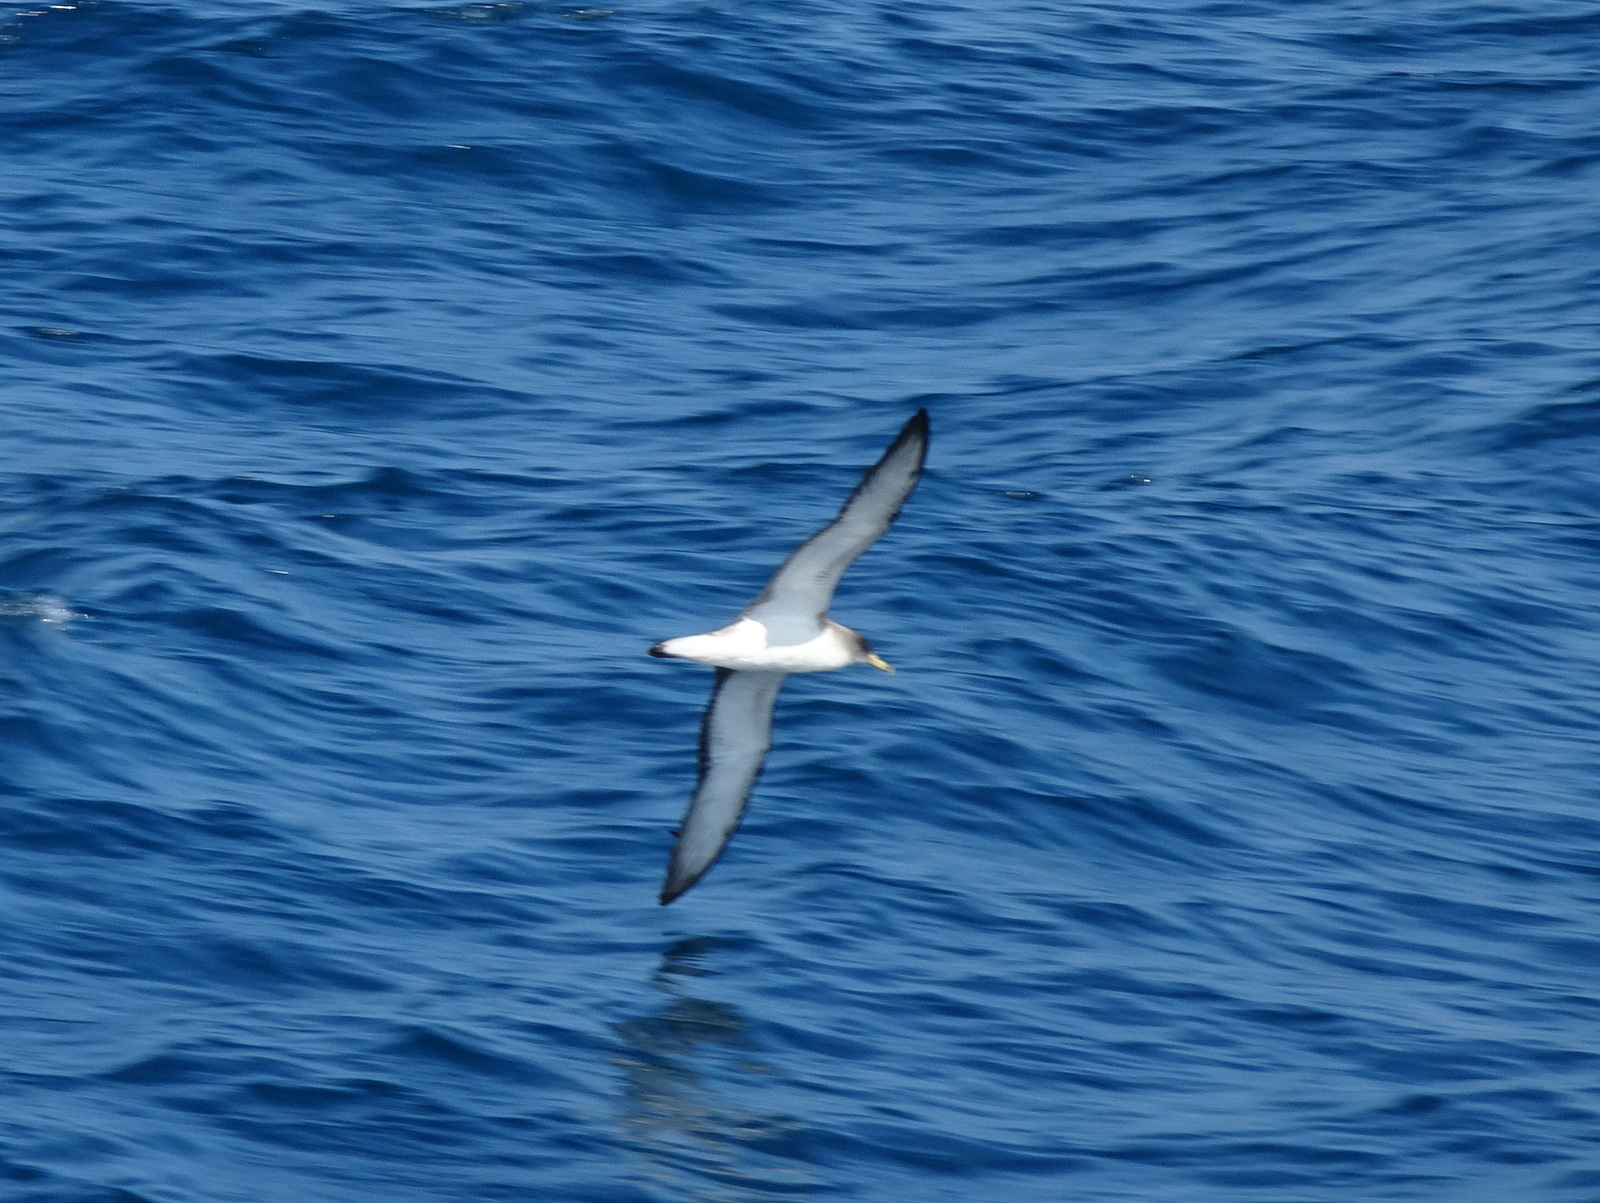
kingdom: Animalia
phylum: Chordata
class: Aves
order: Procellariiformes
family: Procellariidae
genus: Calonectris
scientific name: Calonectris diomedea
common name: Cory's shearwater
